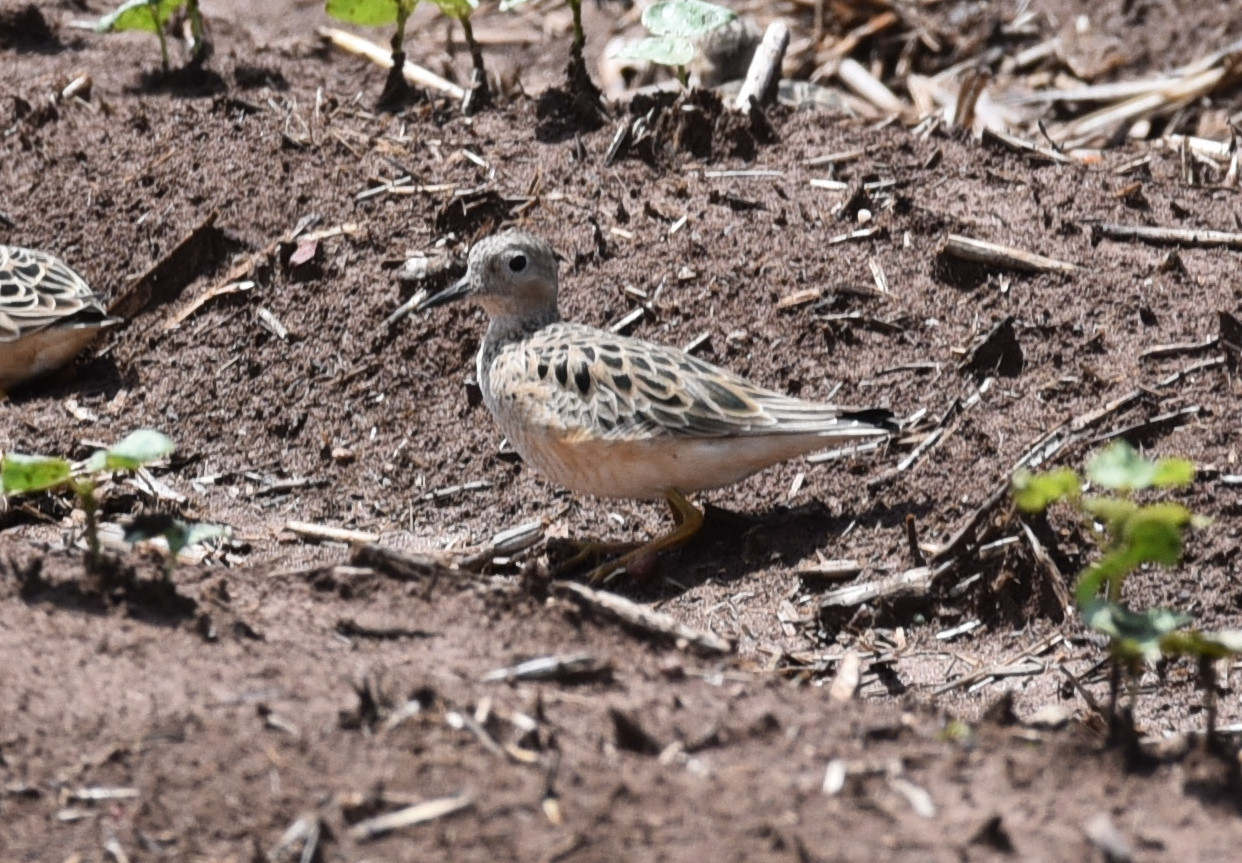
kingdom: Animalia
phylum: Chordata
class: Aves
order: Charadriiformes
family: Scolopacidae
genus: Calidris
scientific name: Calidris subruficollis
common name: Buff-breasted sandpiper
